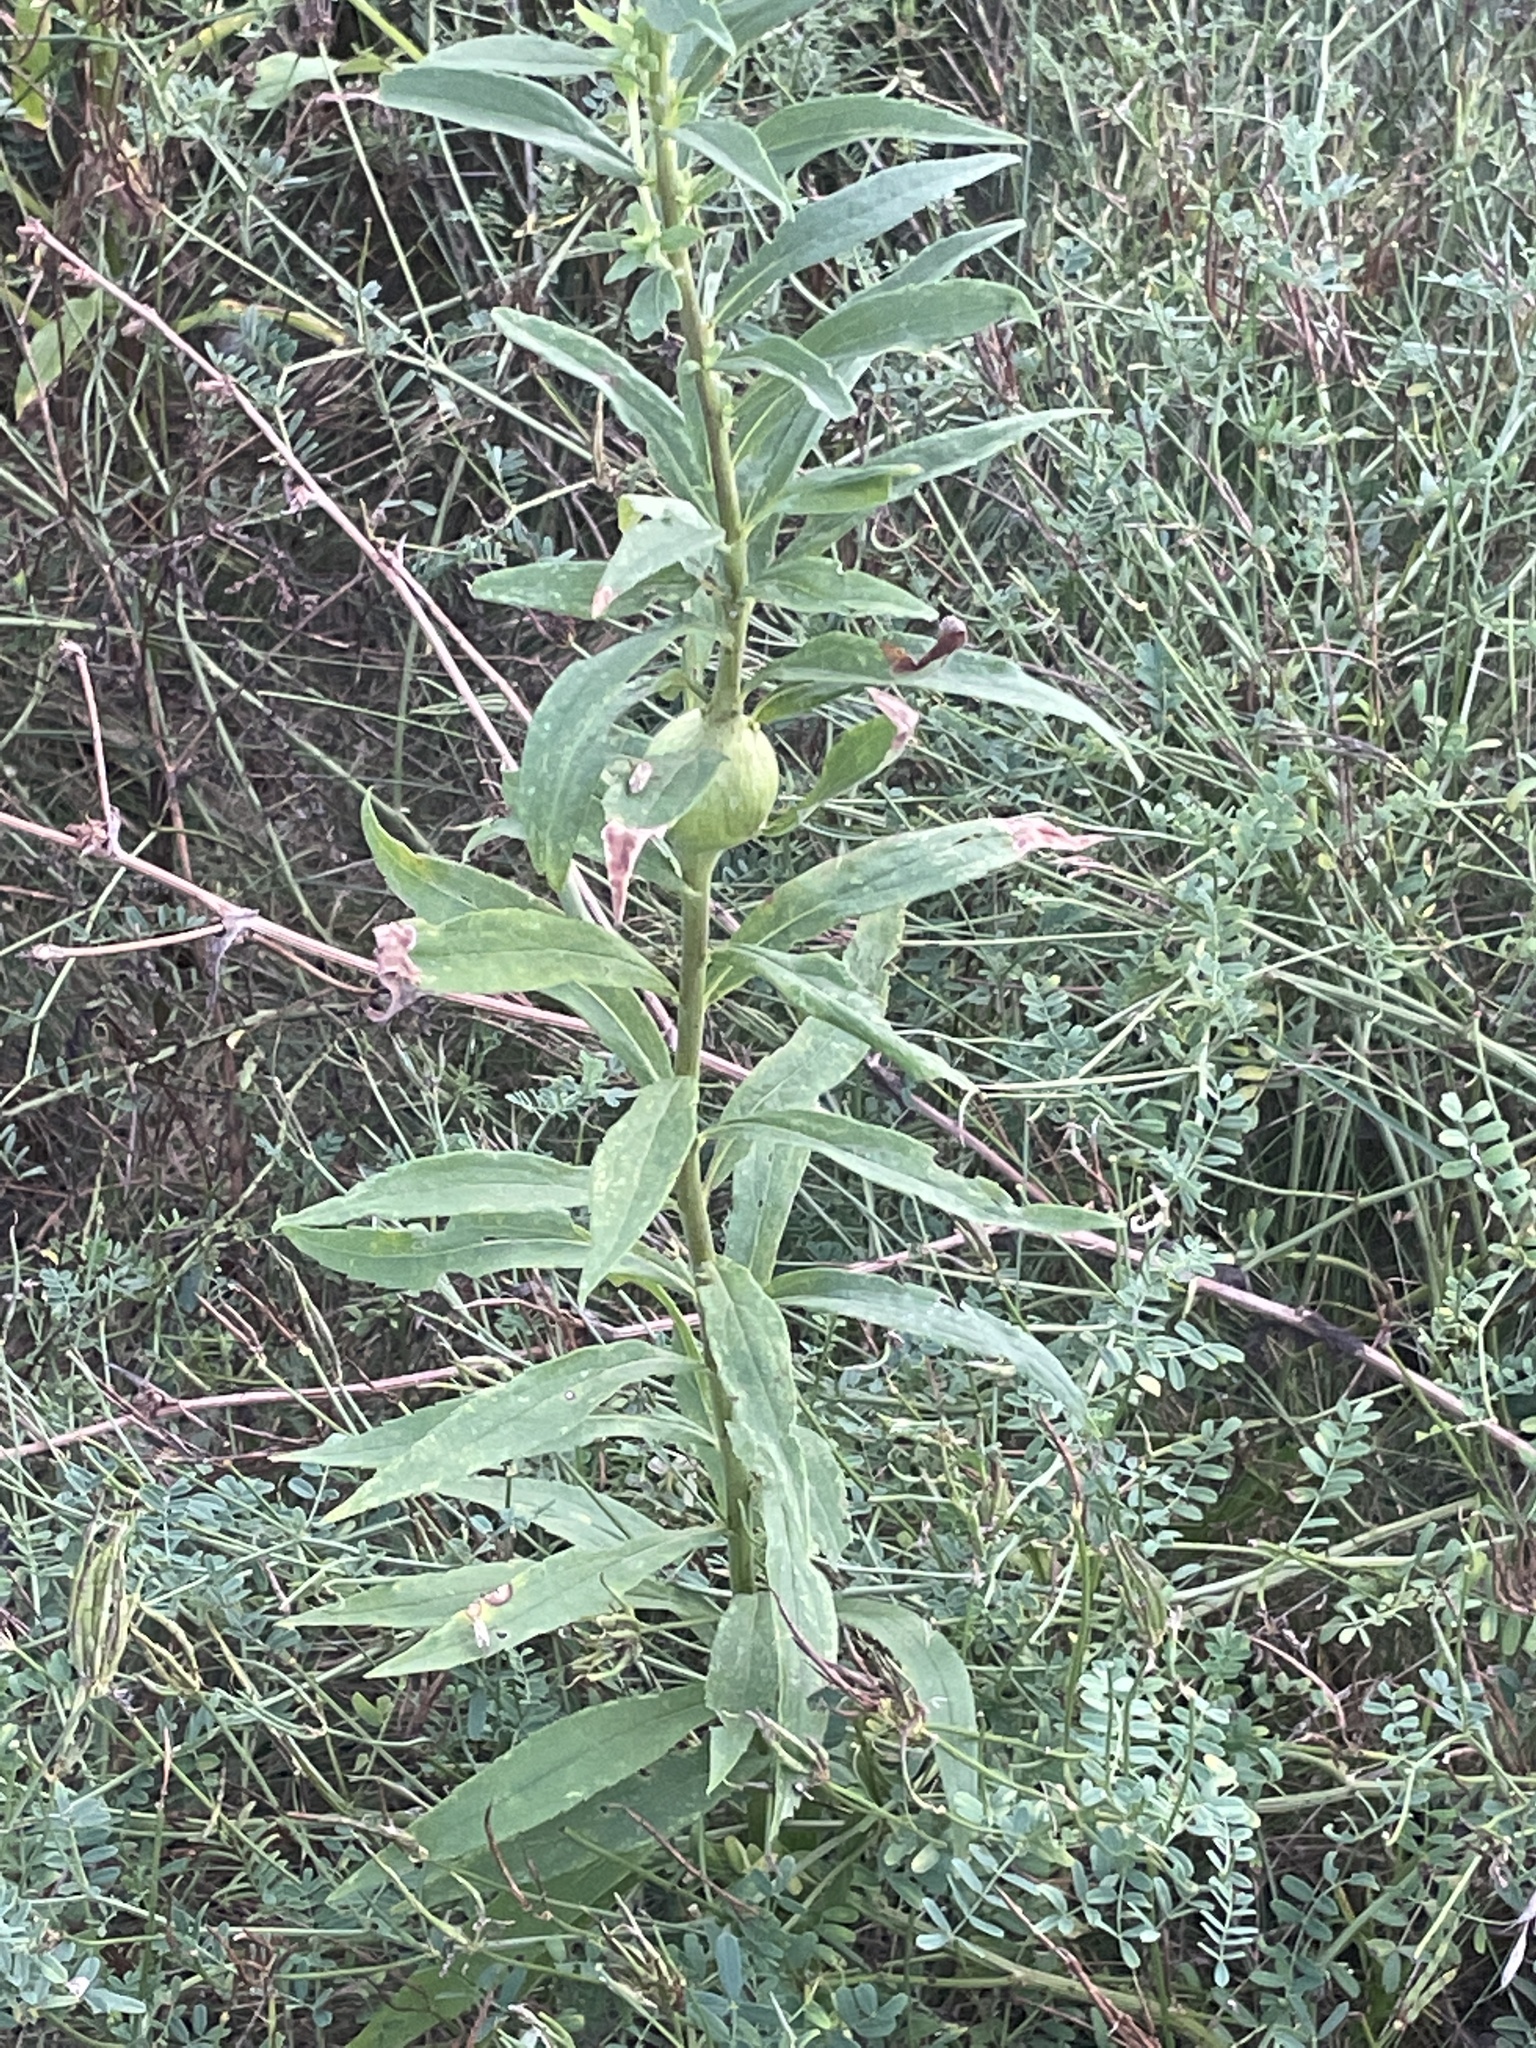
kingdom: Animalia
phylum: Arthropoda
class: Insecta
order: Diptera
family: Tephritidae
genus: Eurosta
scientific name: Eurosta solidaginis
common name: Goldenrod gall fly
